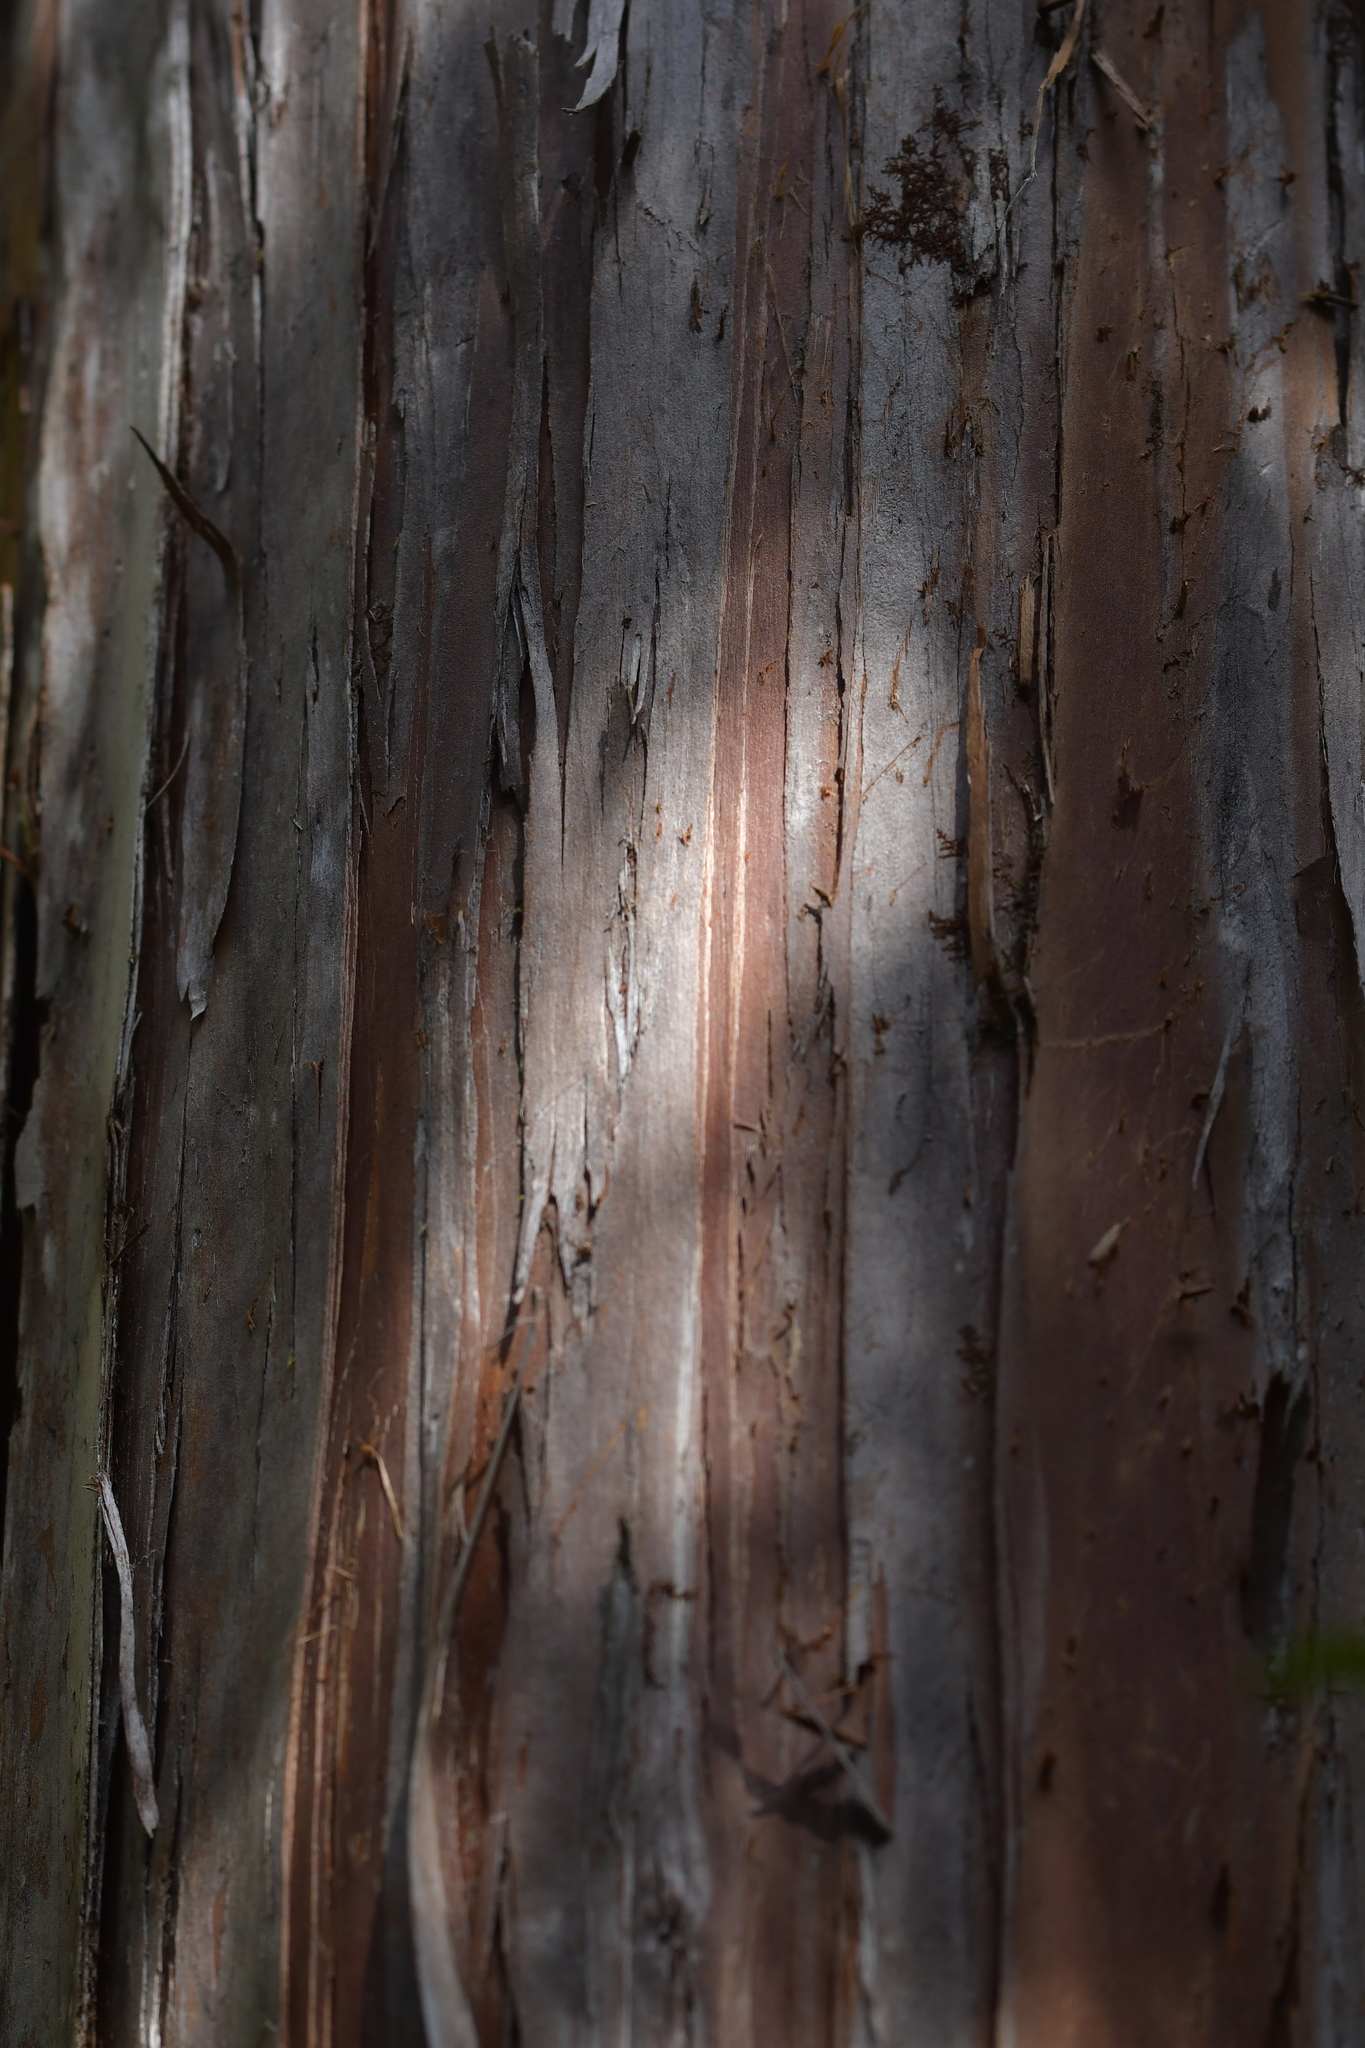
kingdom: Plantae
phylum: Tracheophyta
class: Pinopsida
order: Pinales
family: Cupressaceae
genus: Libocedrus
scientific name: Libocedrus bidwillii
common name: Cedar
